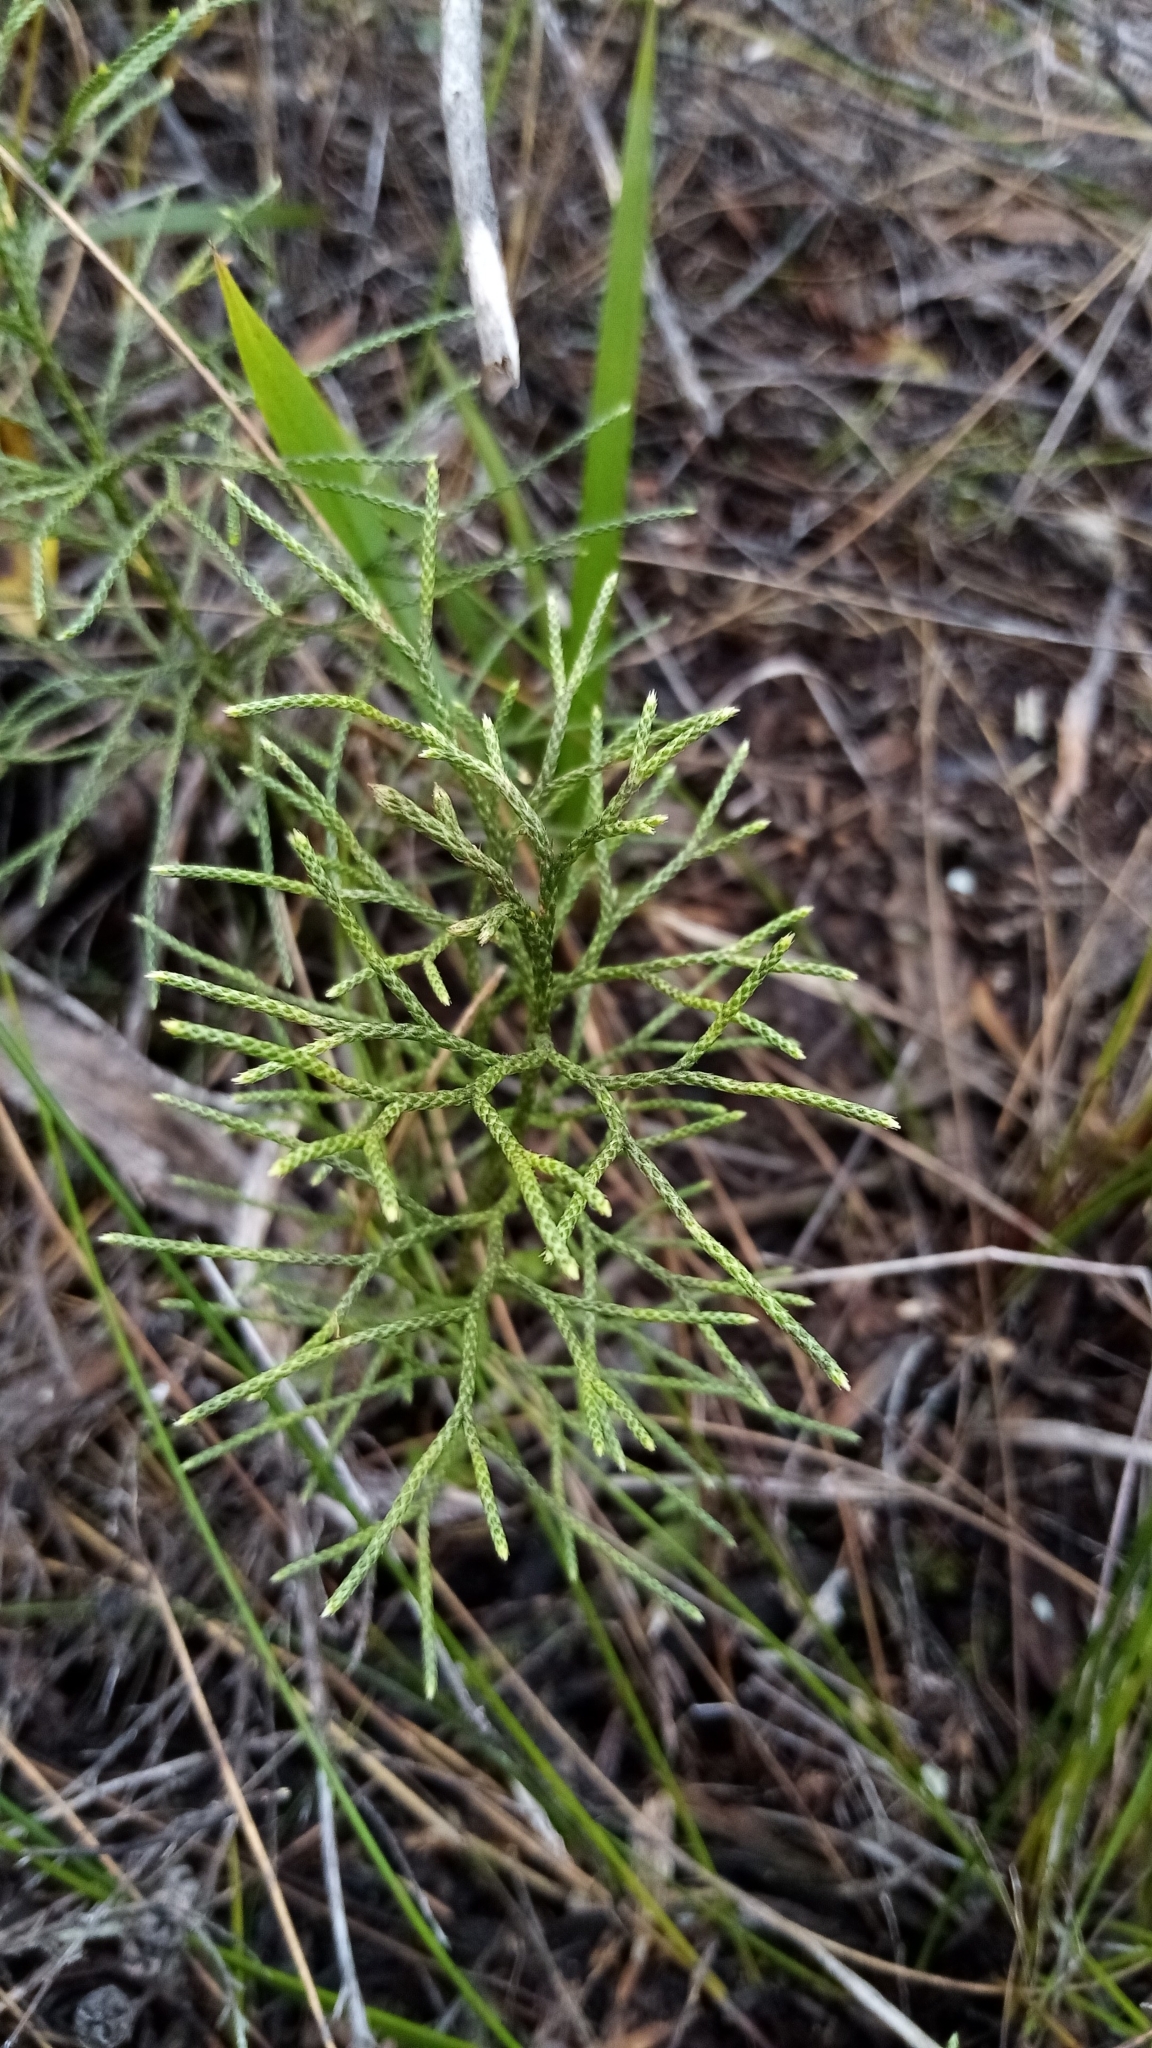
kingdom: Plantae
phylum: Tracheophyta
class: Lycopodiopsida
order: Lycopodiales
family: Lycopodiaceae
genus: Pseudolycopodium
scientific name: Pseudolycopodium densum
